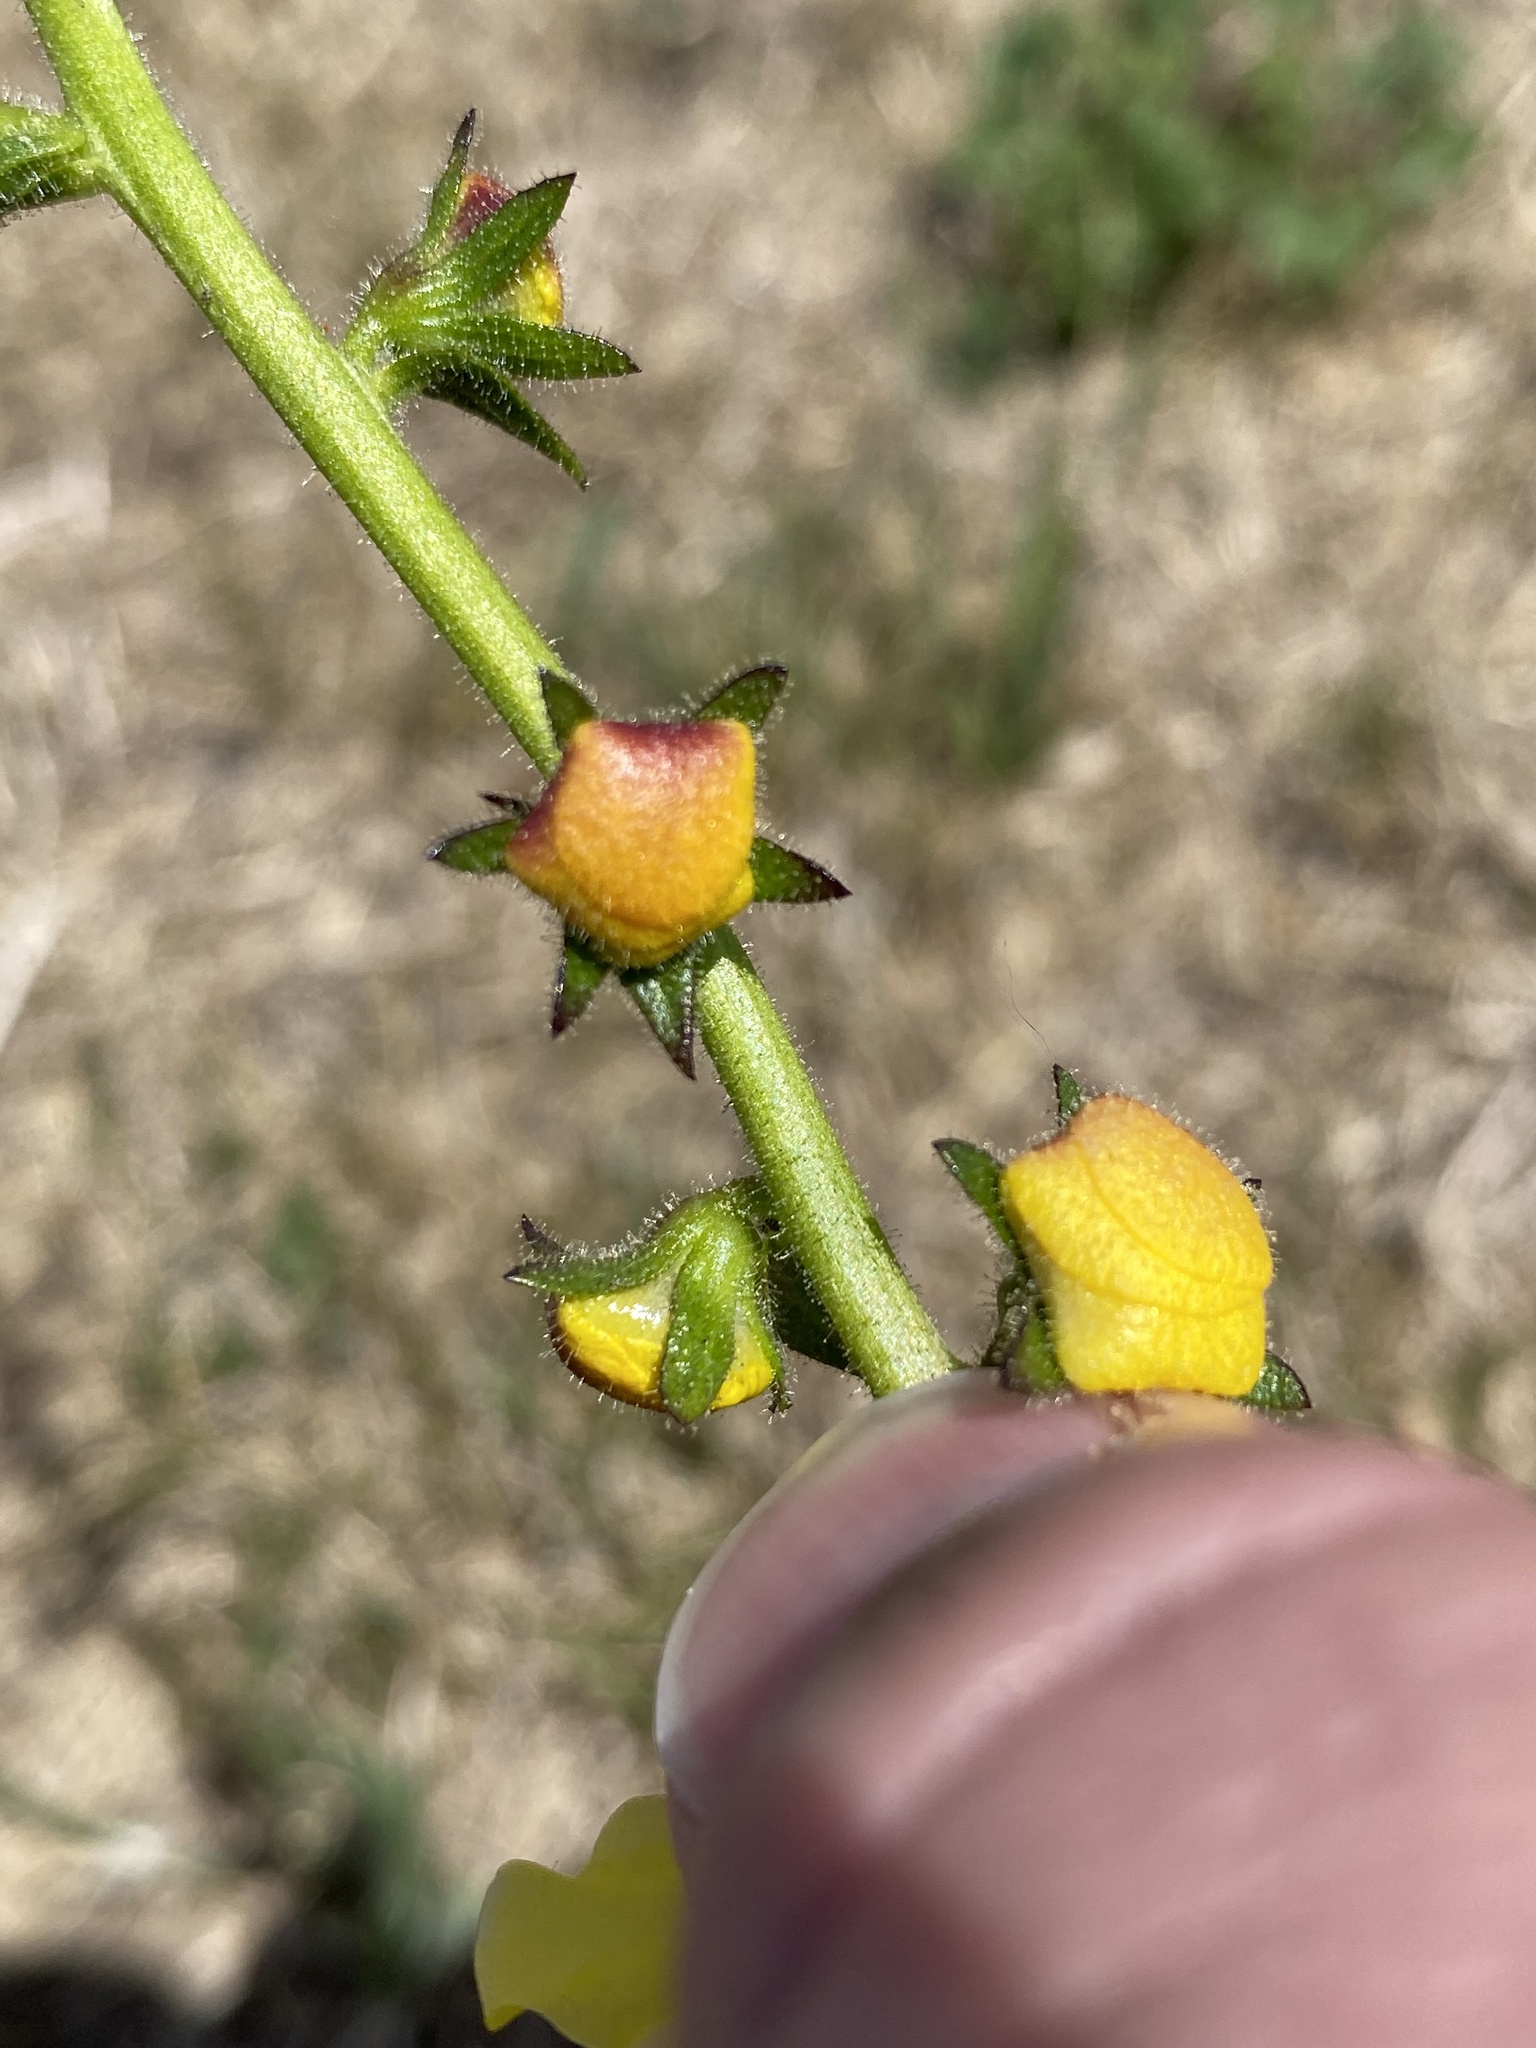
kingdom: Plantae
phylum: Tracheophyta
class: Magnoliopsida
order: Lamiales
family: Scrophulariaceae
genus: Verbascum
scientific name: Verbascum virgatum
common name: Twiggy mullein
